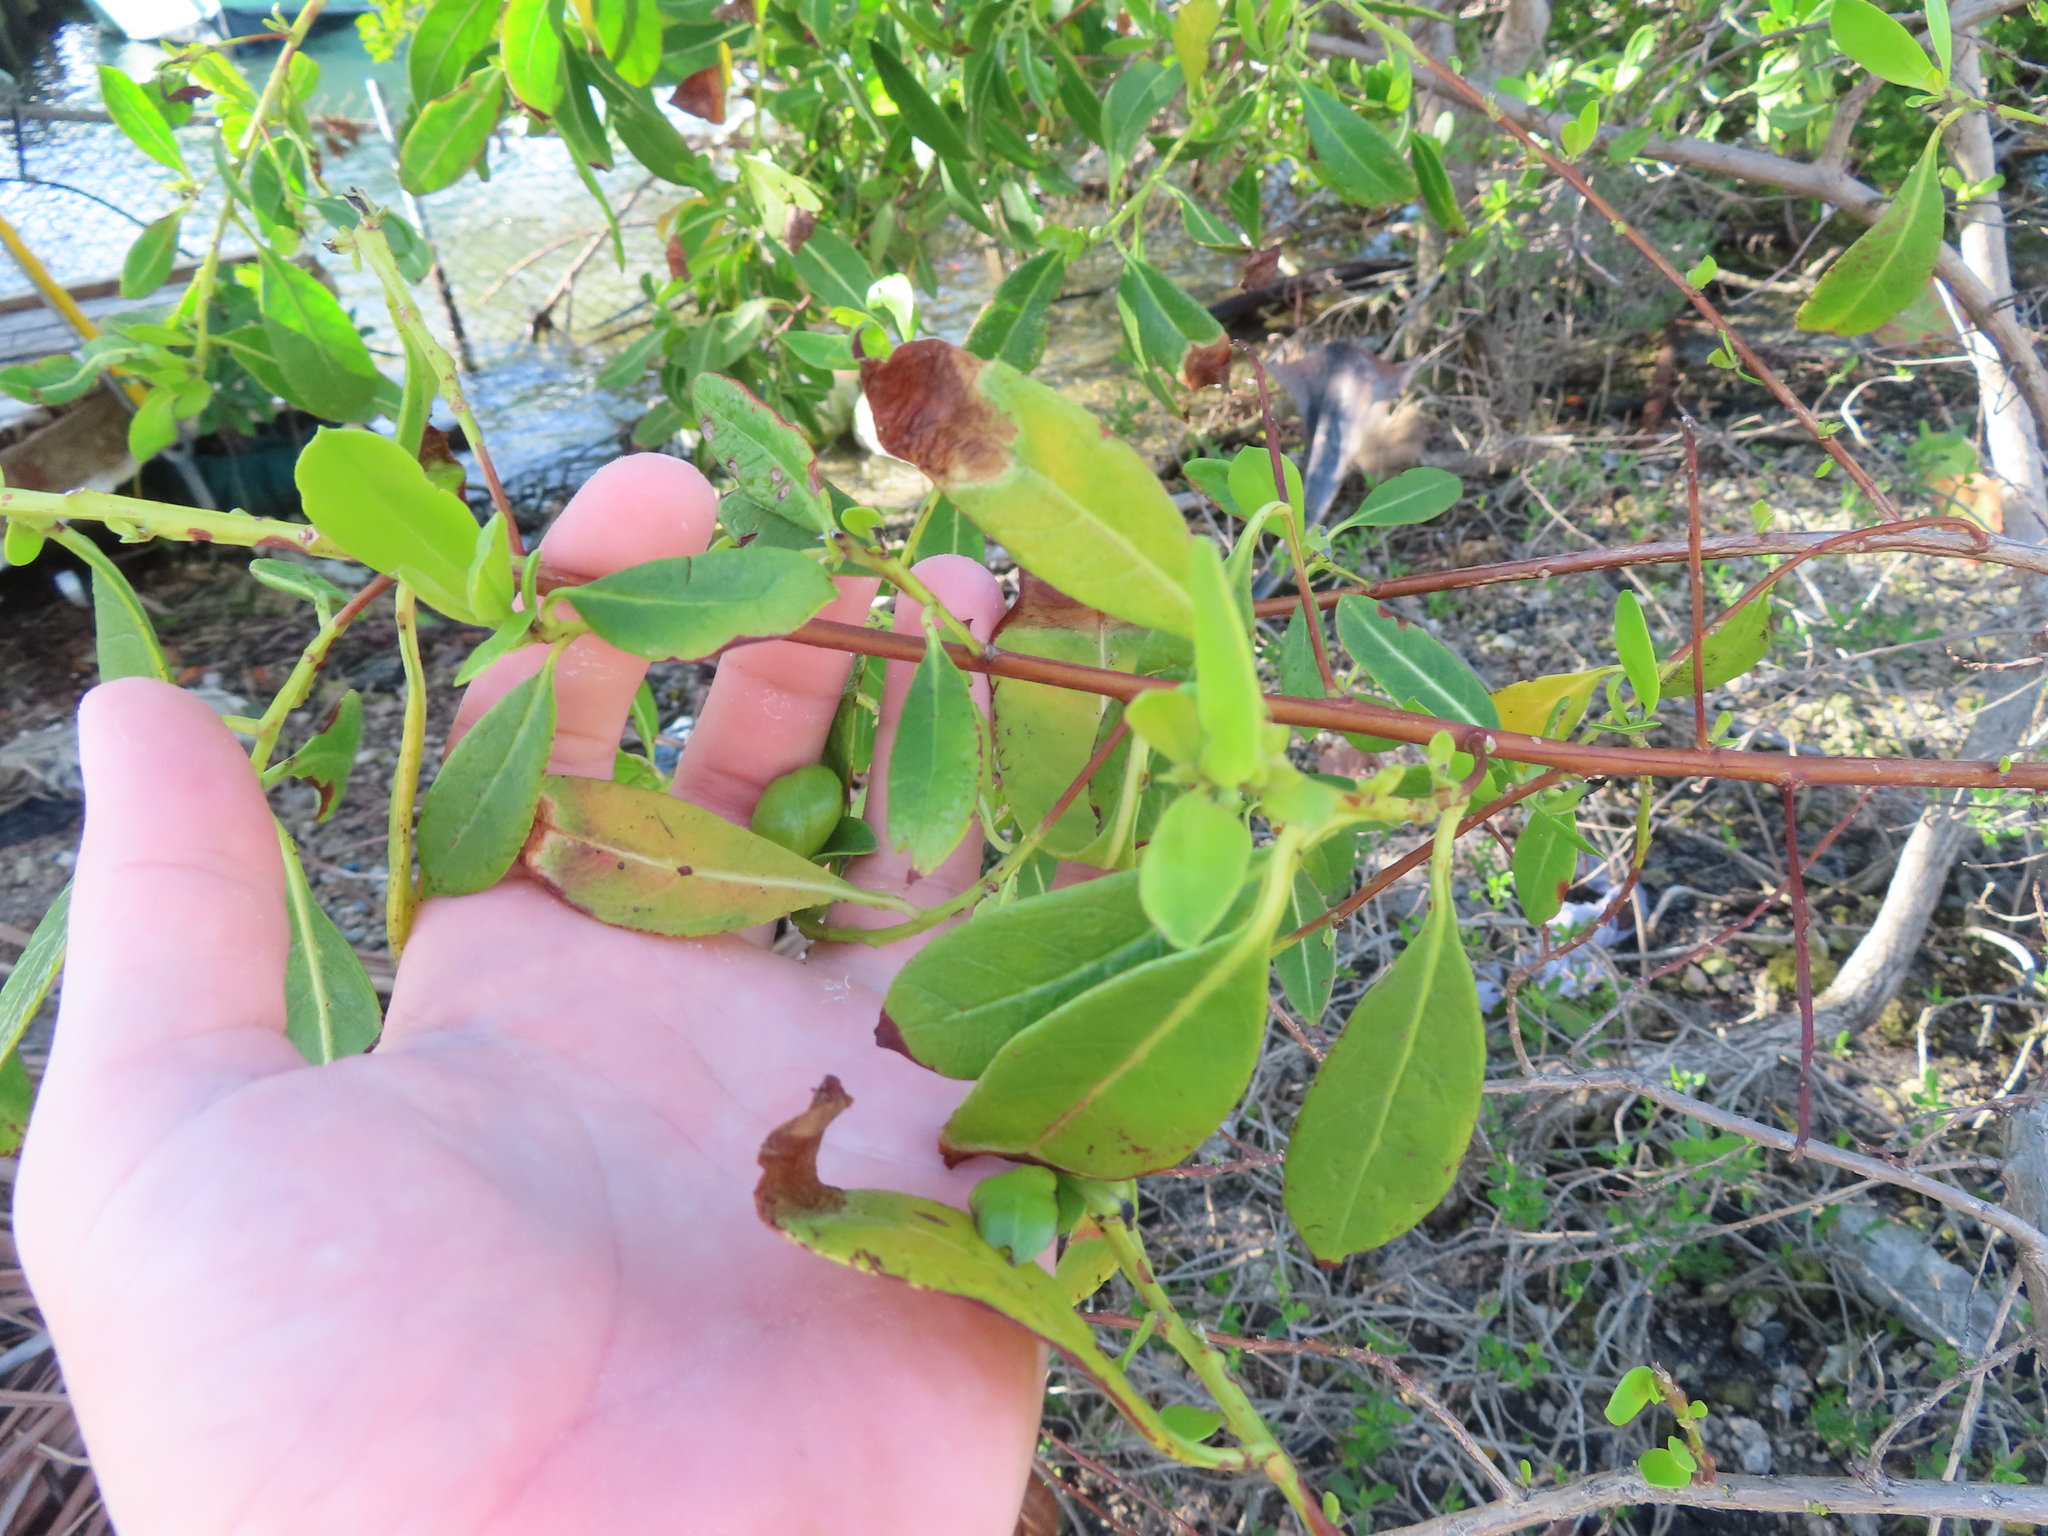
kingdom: Plantae
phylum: Tracheophyta
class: Magnoliopsida
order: Myrtales
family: Combretaceae
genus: Conocarpus
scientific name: Conocarpus erectus
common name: Button mangrove
